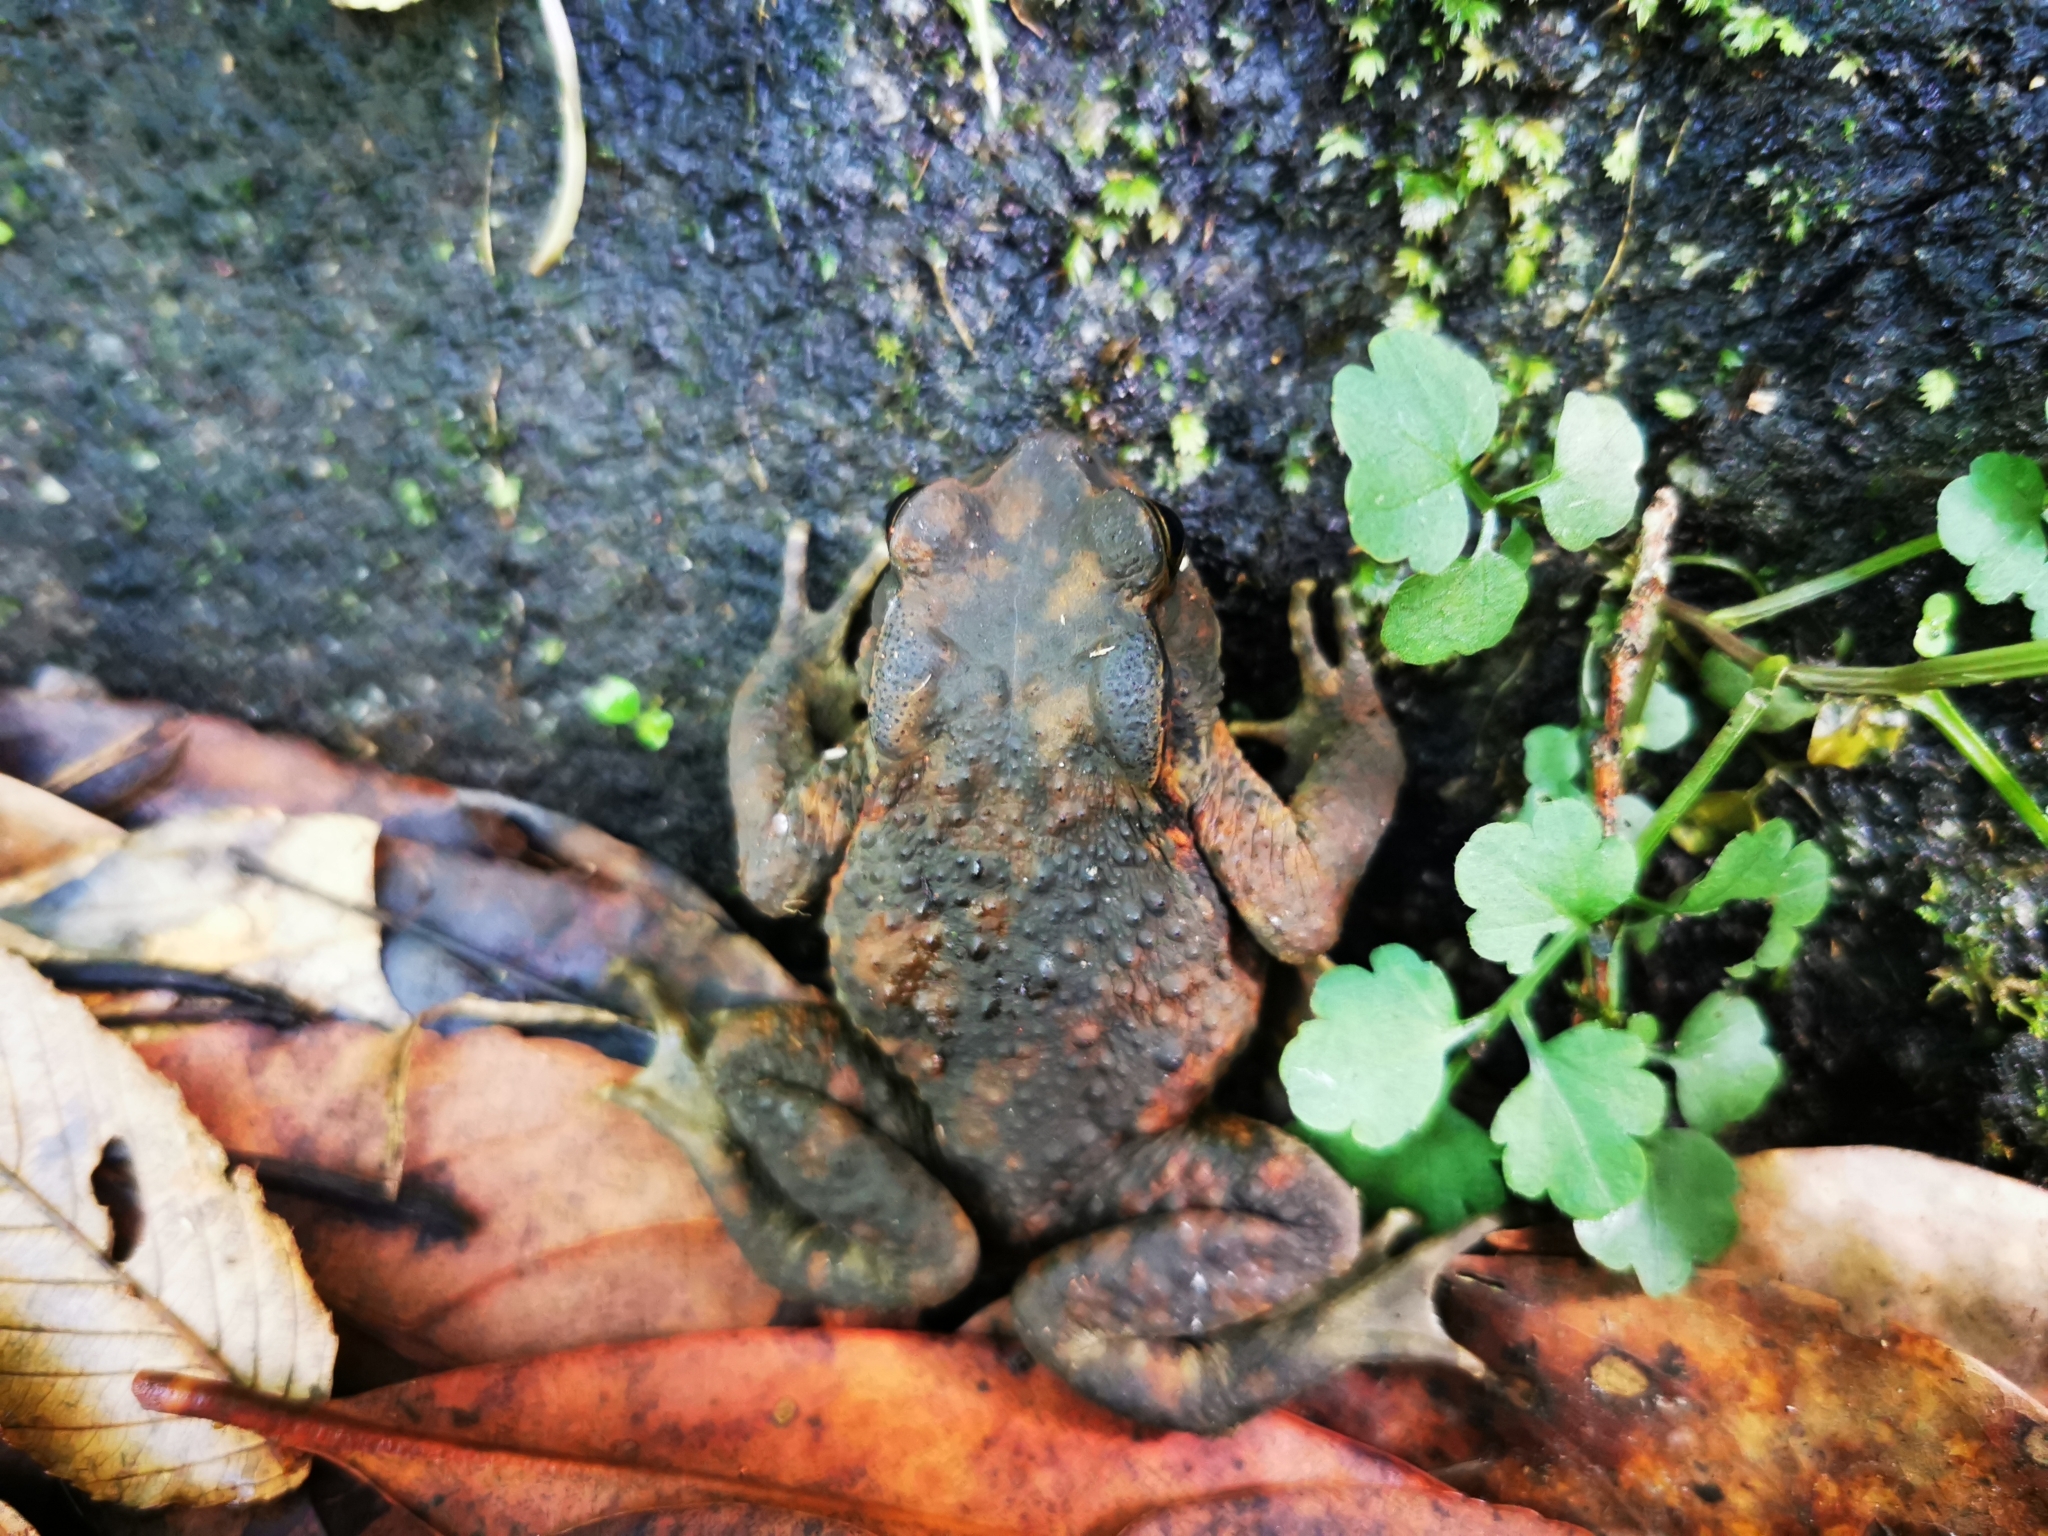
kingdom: Animalia
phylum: Chordata
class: Amphibia
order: Anura
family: Bufonidae
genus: Bufo
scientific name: Bufo bankorensis
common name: Bankor toad
